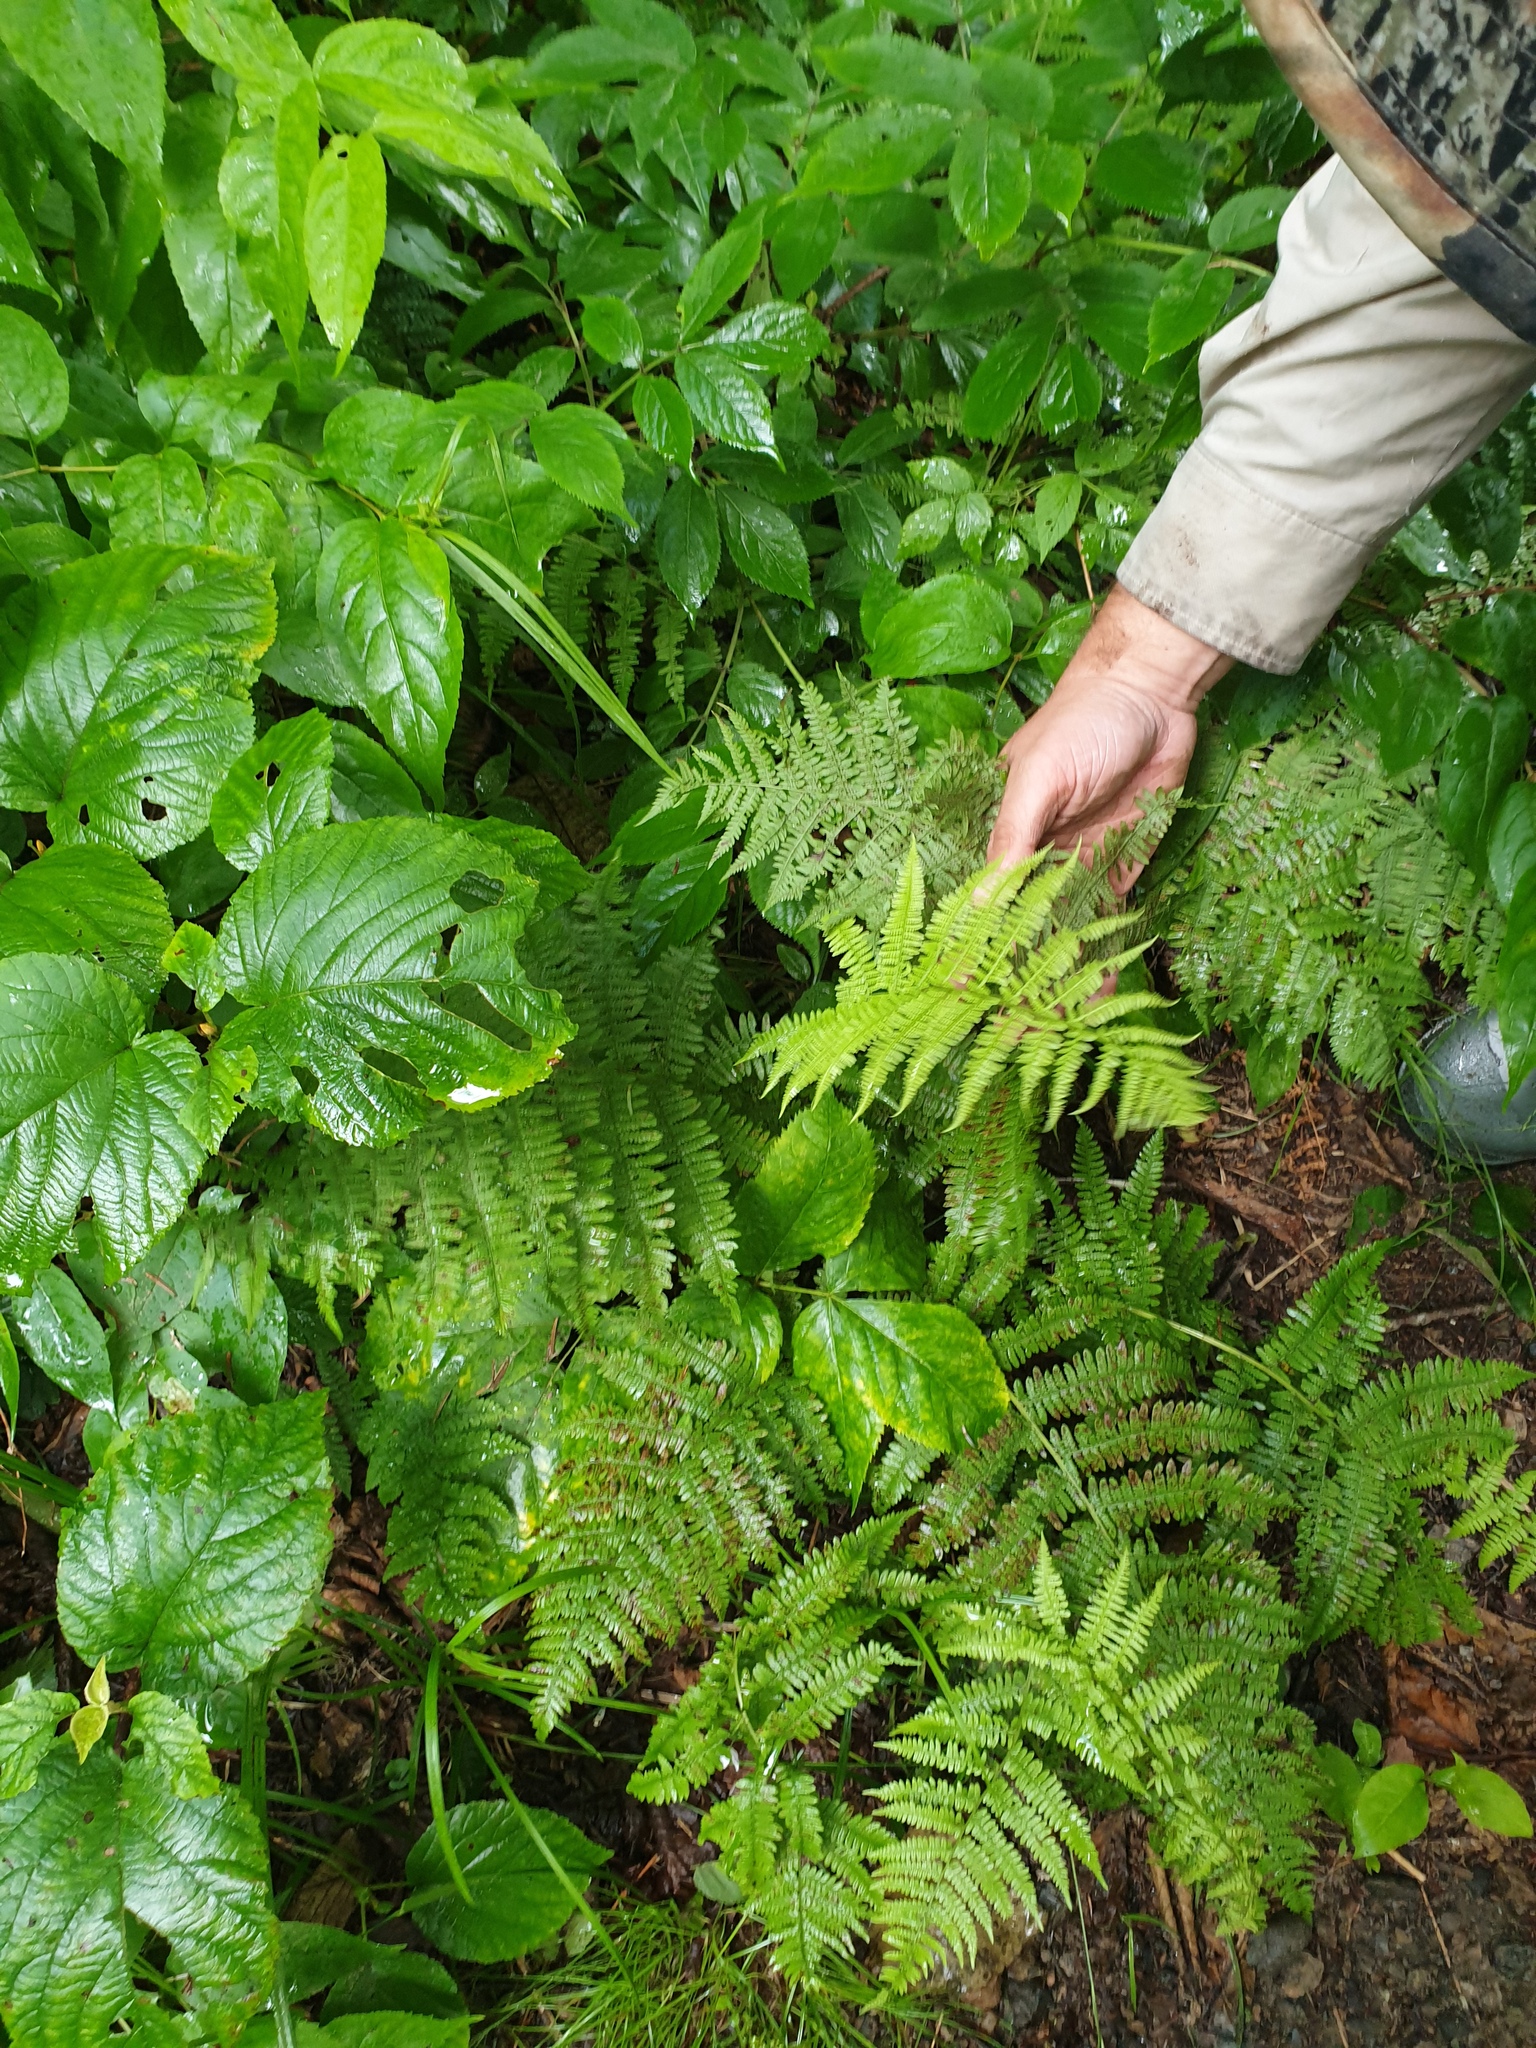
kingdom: Plantae
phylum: Tracheophyta
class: Polypodiopsida
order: Polypodiales
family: Athyriaceae
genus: Athyrium
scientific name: Athyrium angustum
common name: Northern lady fern
